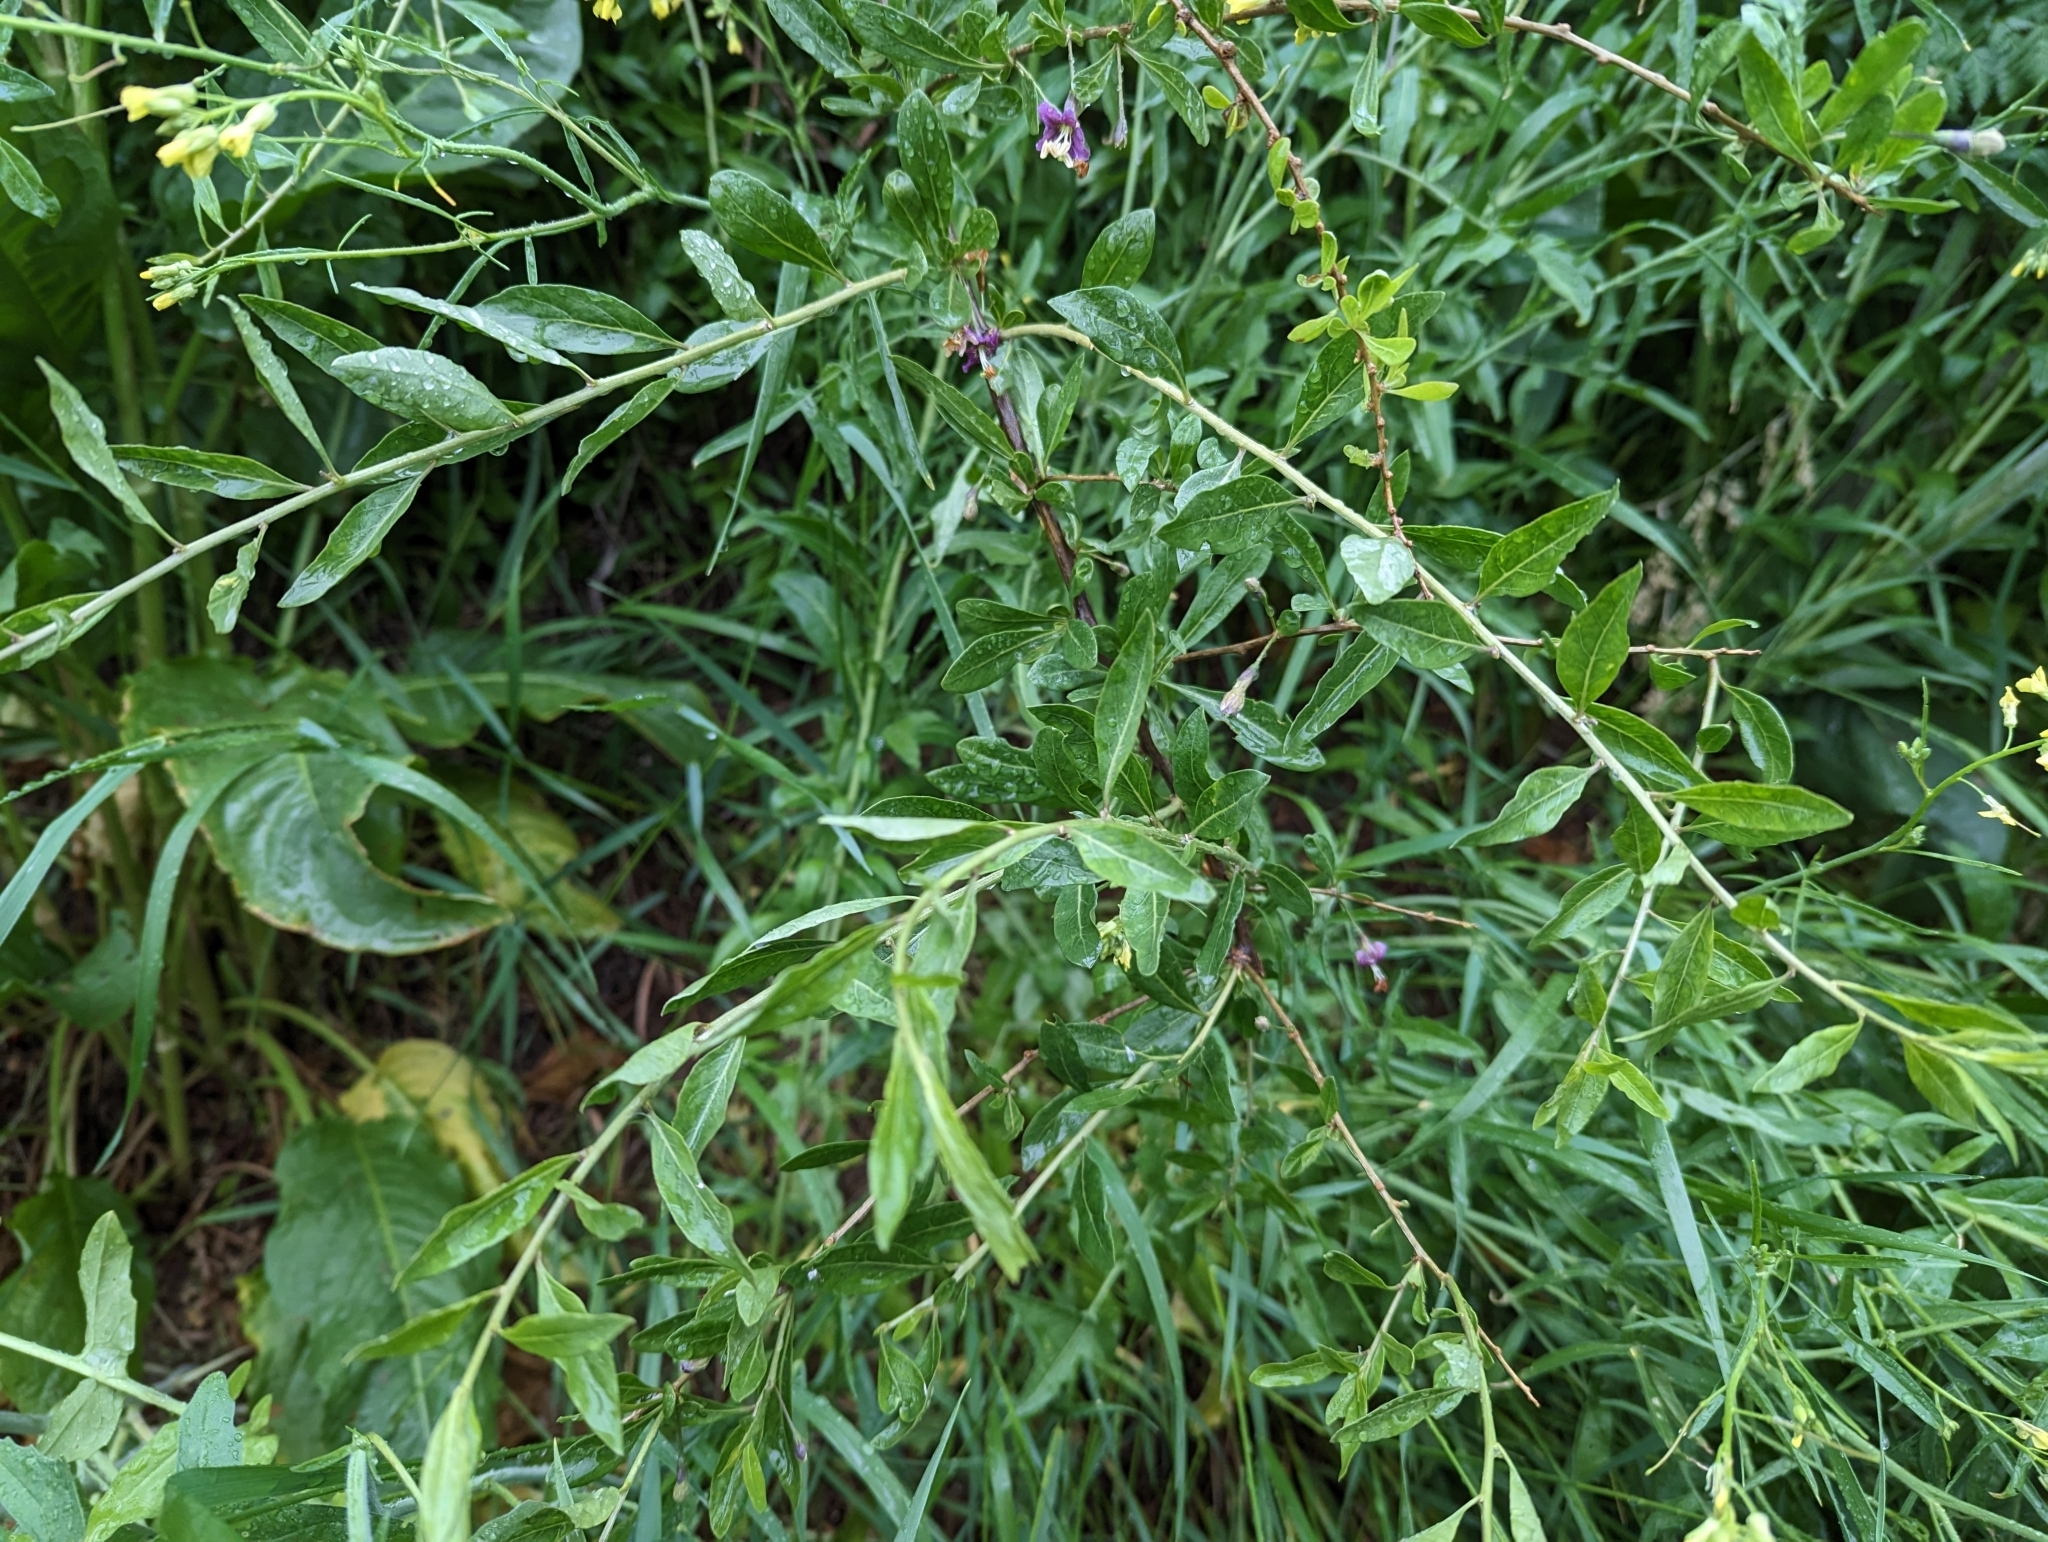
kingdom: Plantae
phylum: Tracheophyta
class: Magnoliopsida
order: Solanales
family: Solanaceae
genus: Lycium
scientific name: Lycium barbarum
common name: Duke of argyll's teaplant
